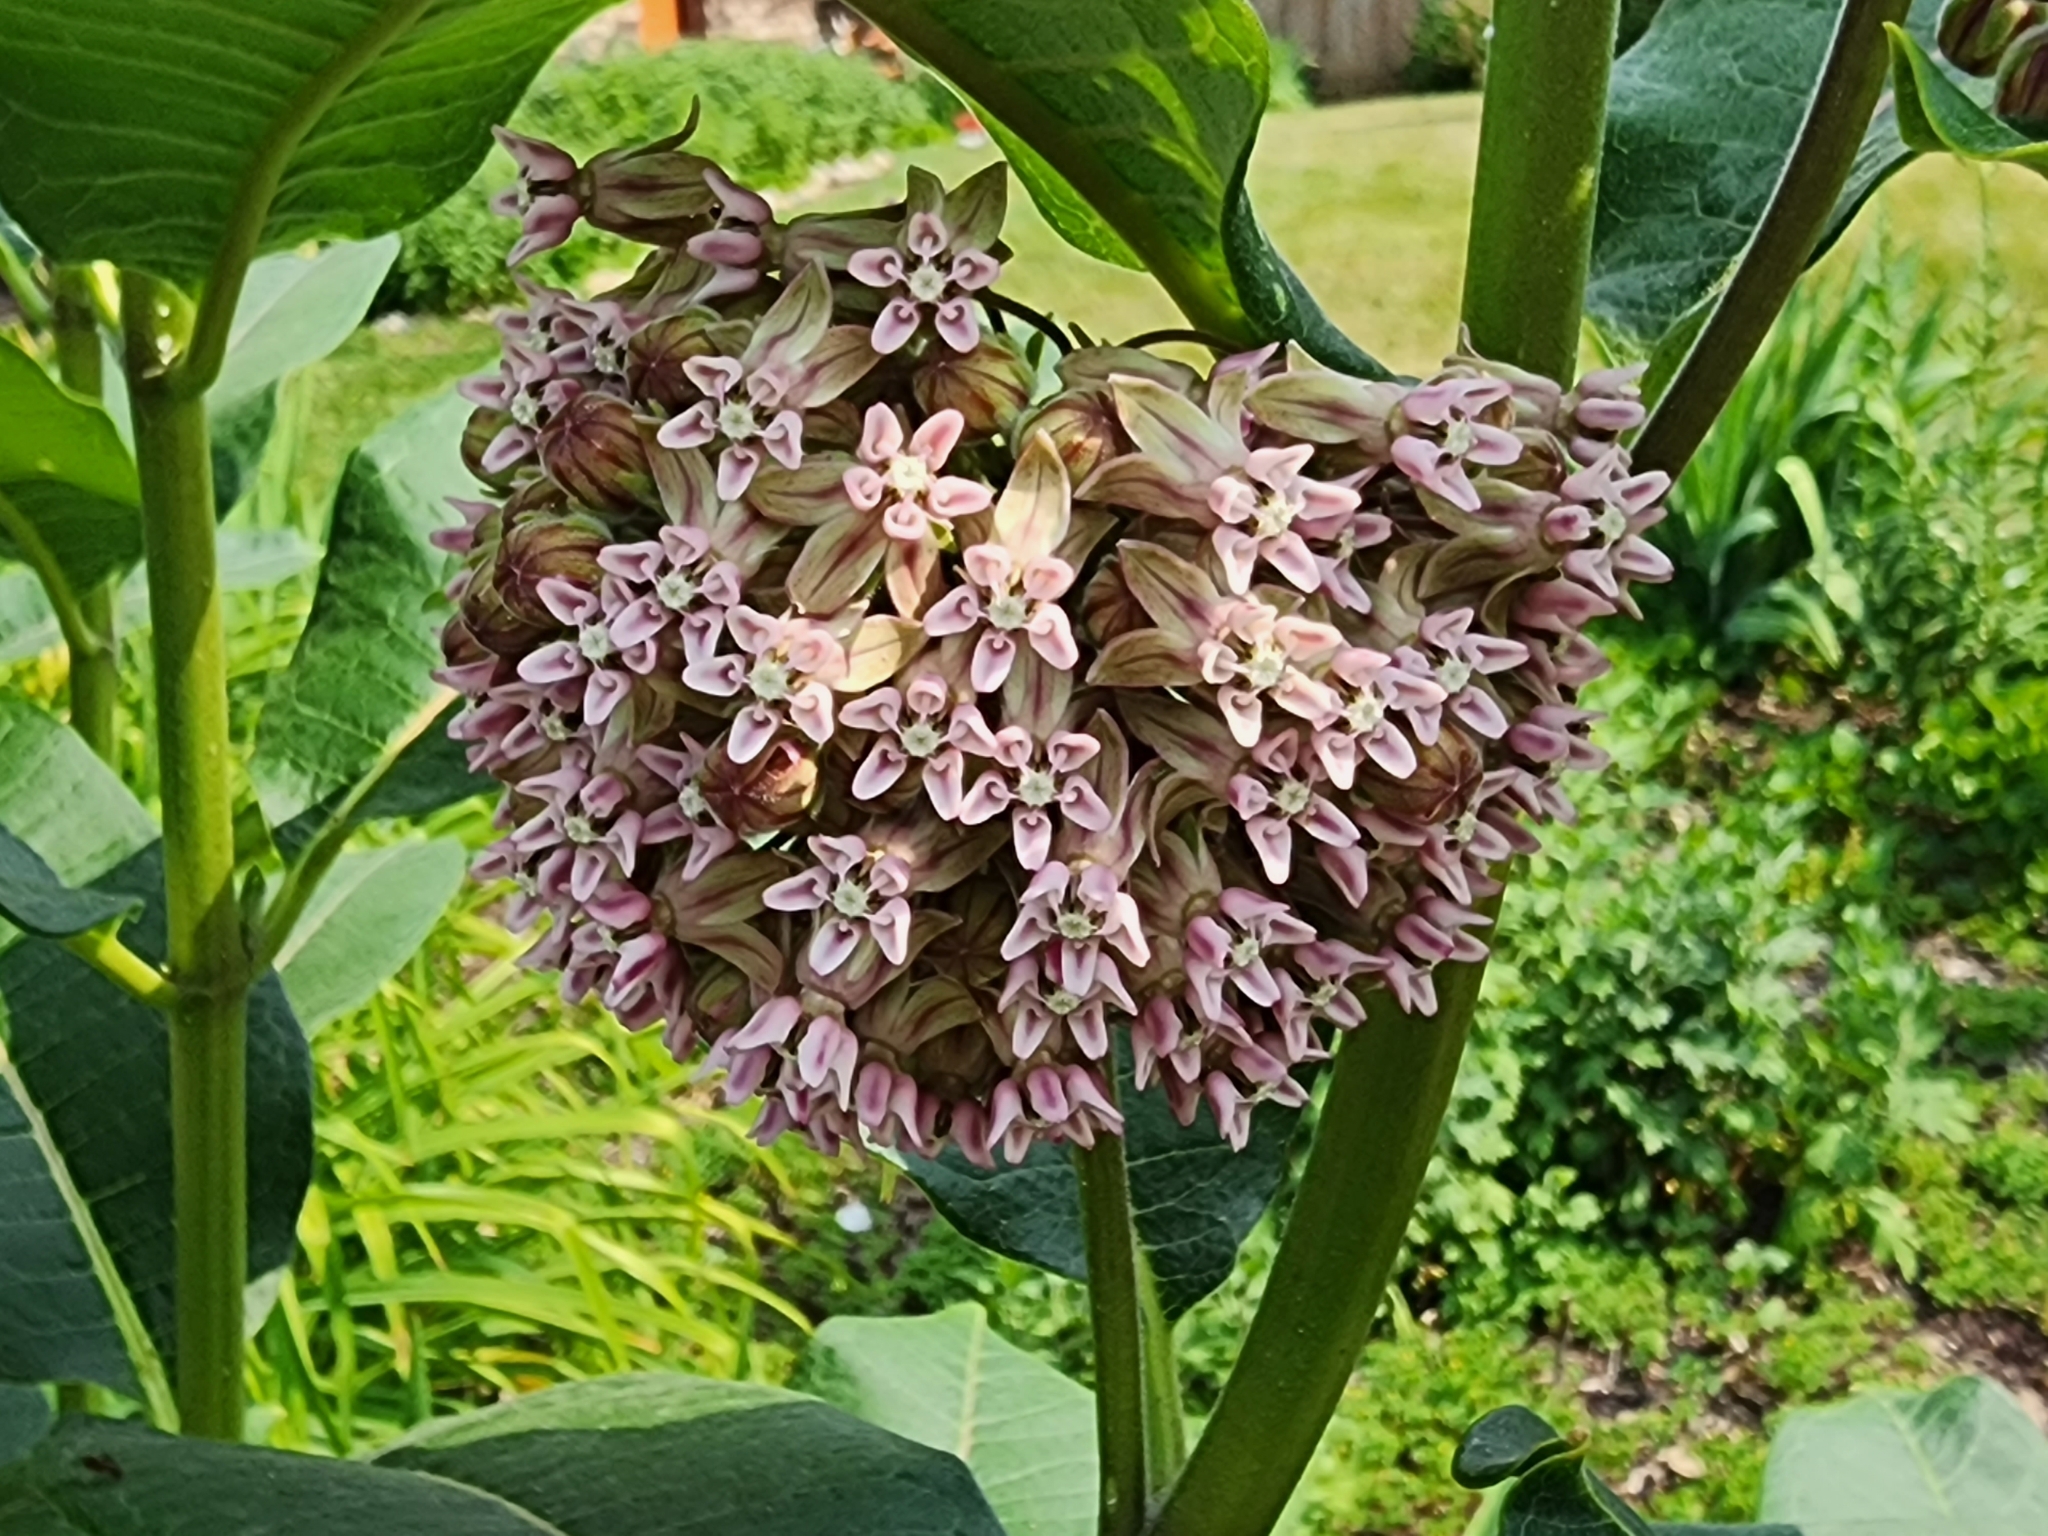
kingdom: Plantae
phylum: Tracheophyta
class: Magnoliopsida
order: Gentianales
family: Apocynaceae
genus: Asclepias
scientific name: Asclepias syriaca
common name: Common milkweed
